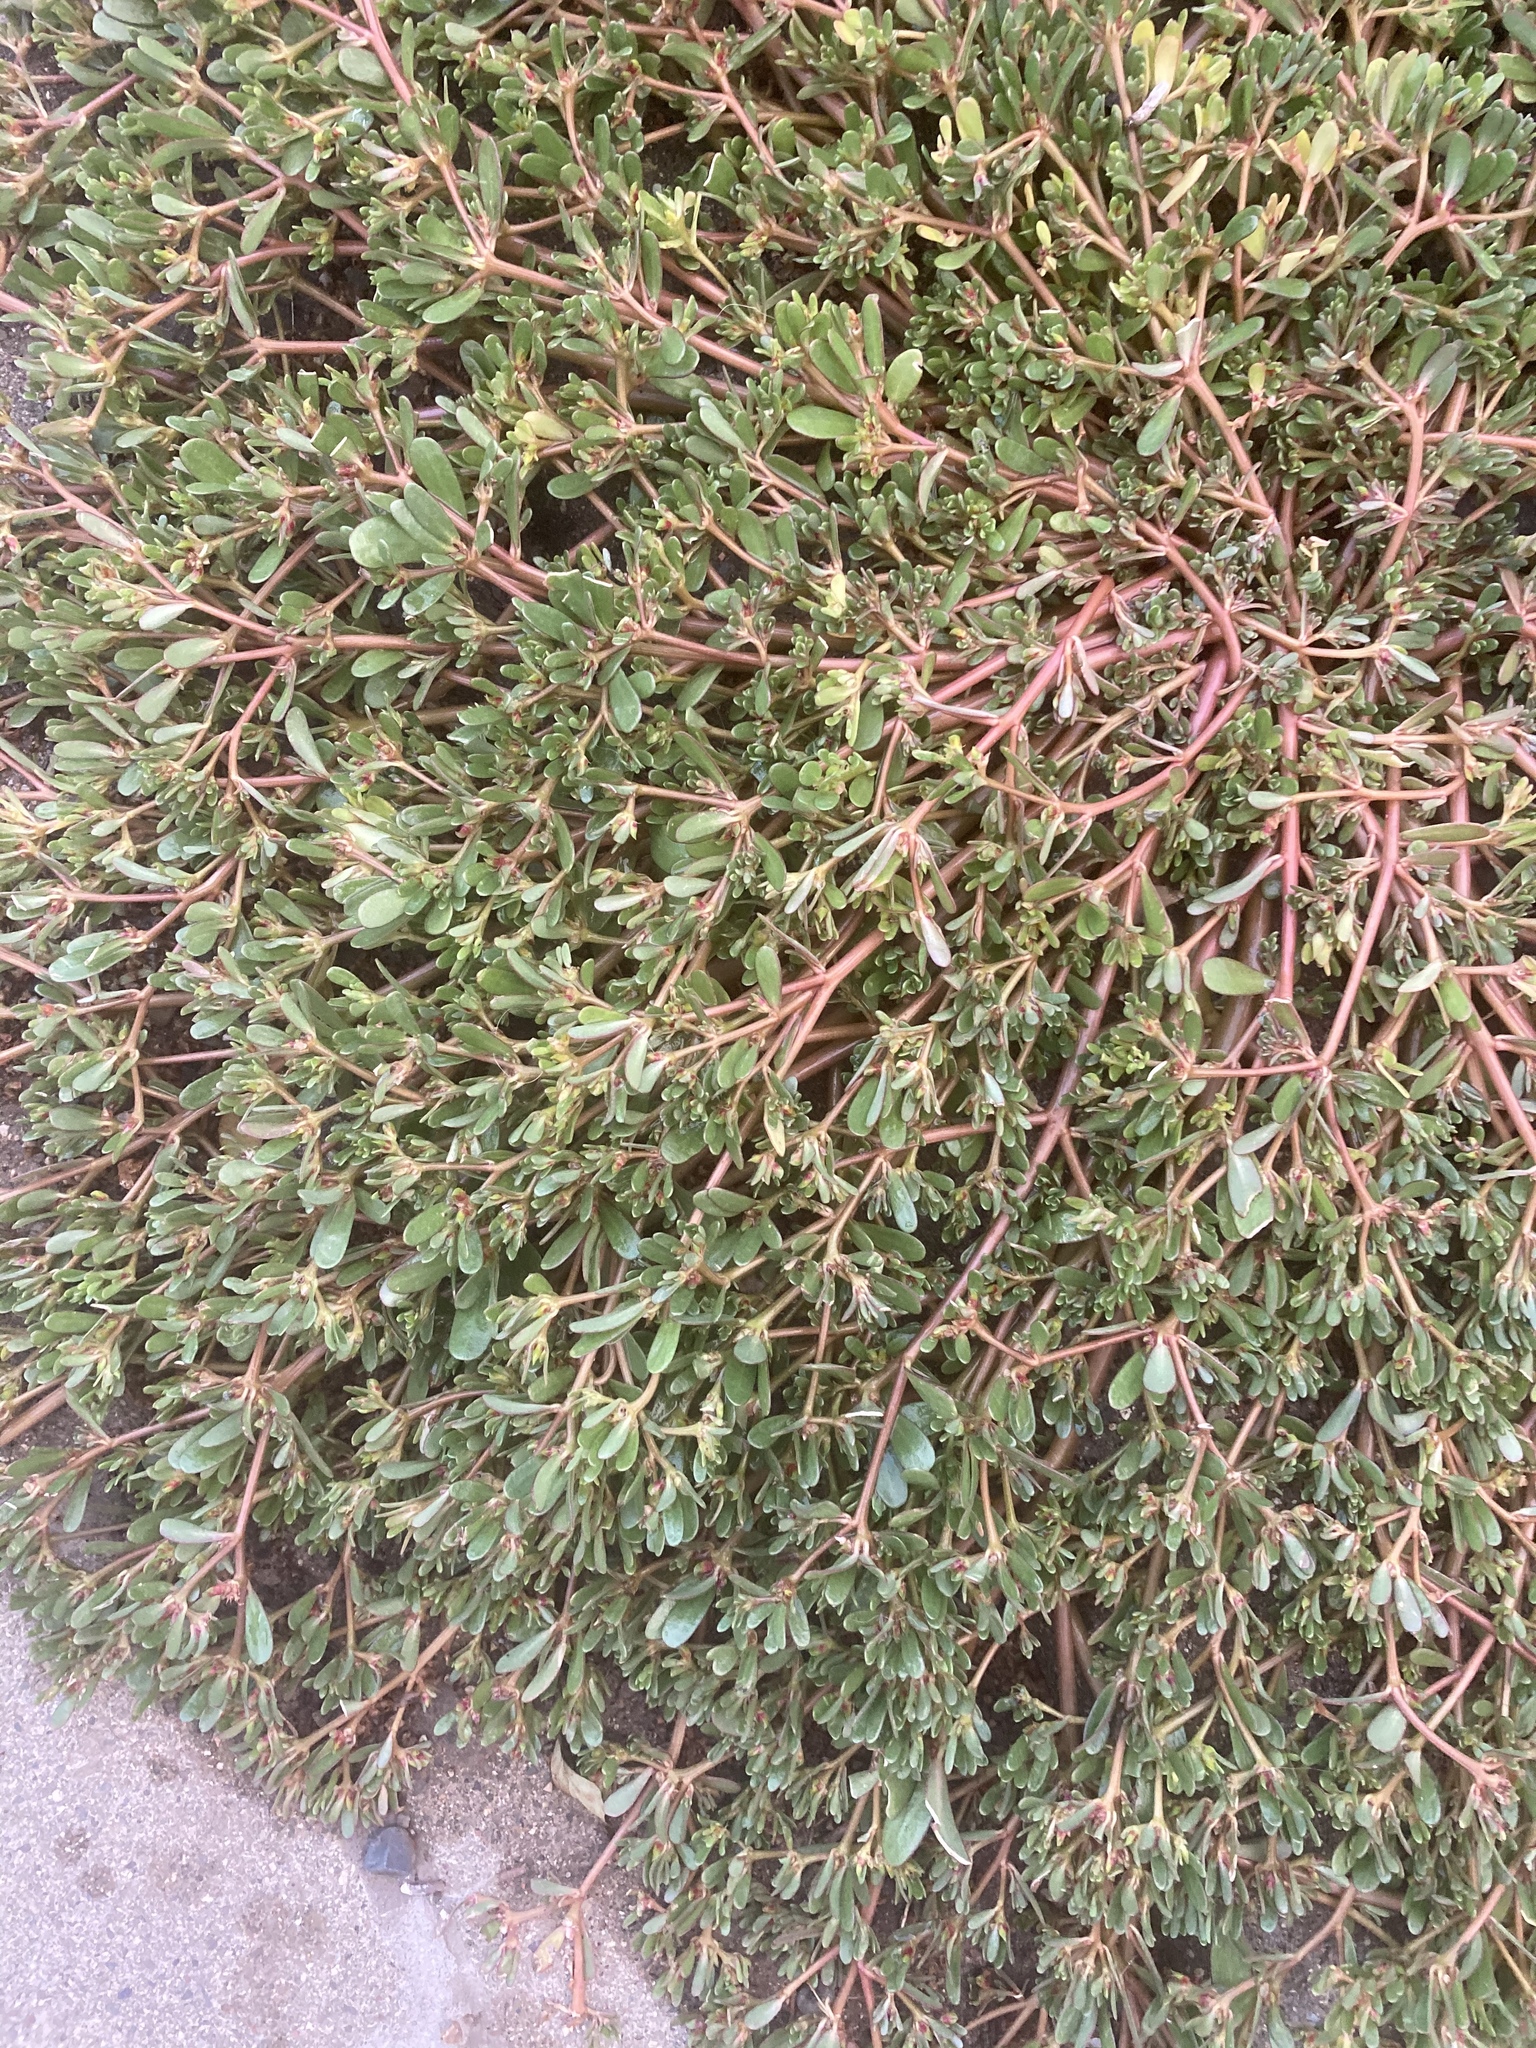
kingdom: Plantae
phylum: Tracheophyta
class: Magnoliopsida
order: Caryophyllales
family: Portulacaceae
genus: Portulaca
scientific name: Portulaca oleracea
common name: Common purslane
